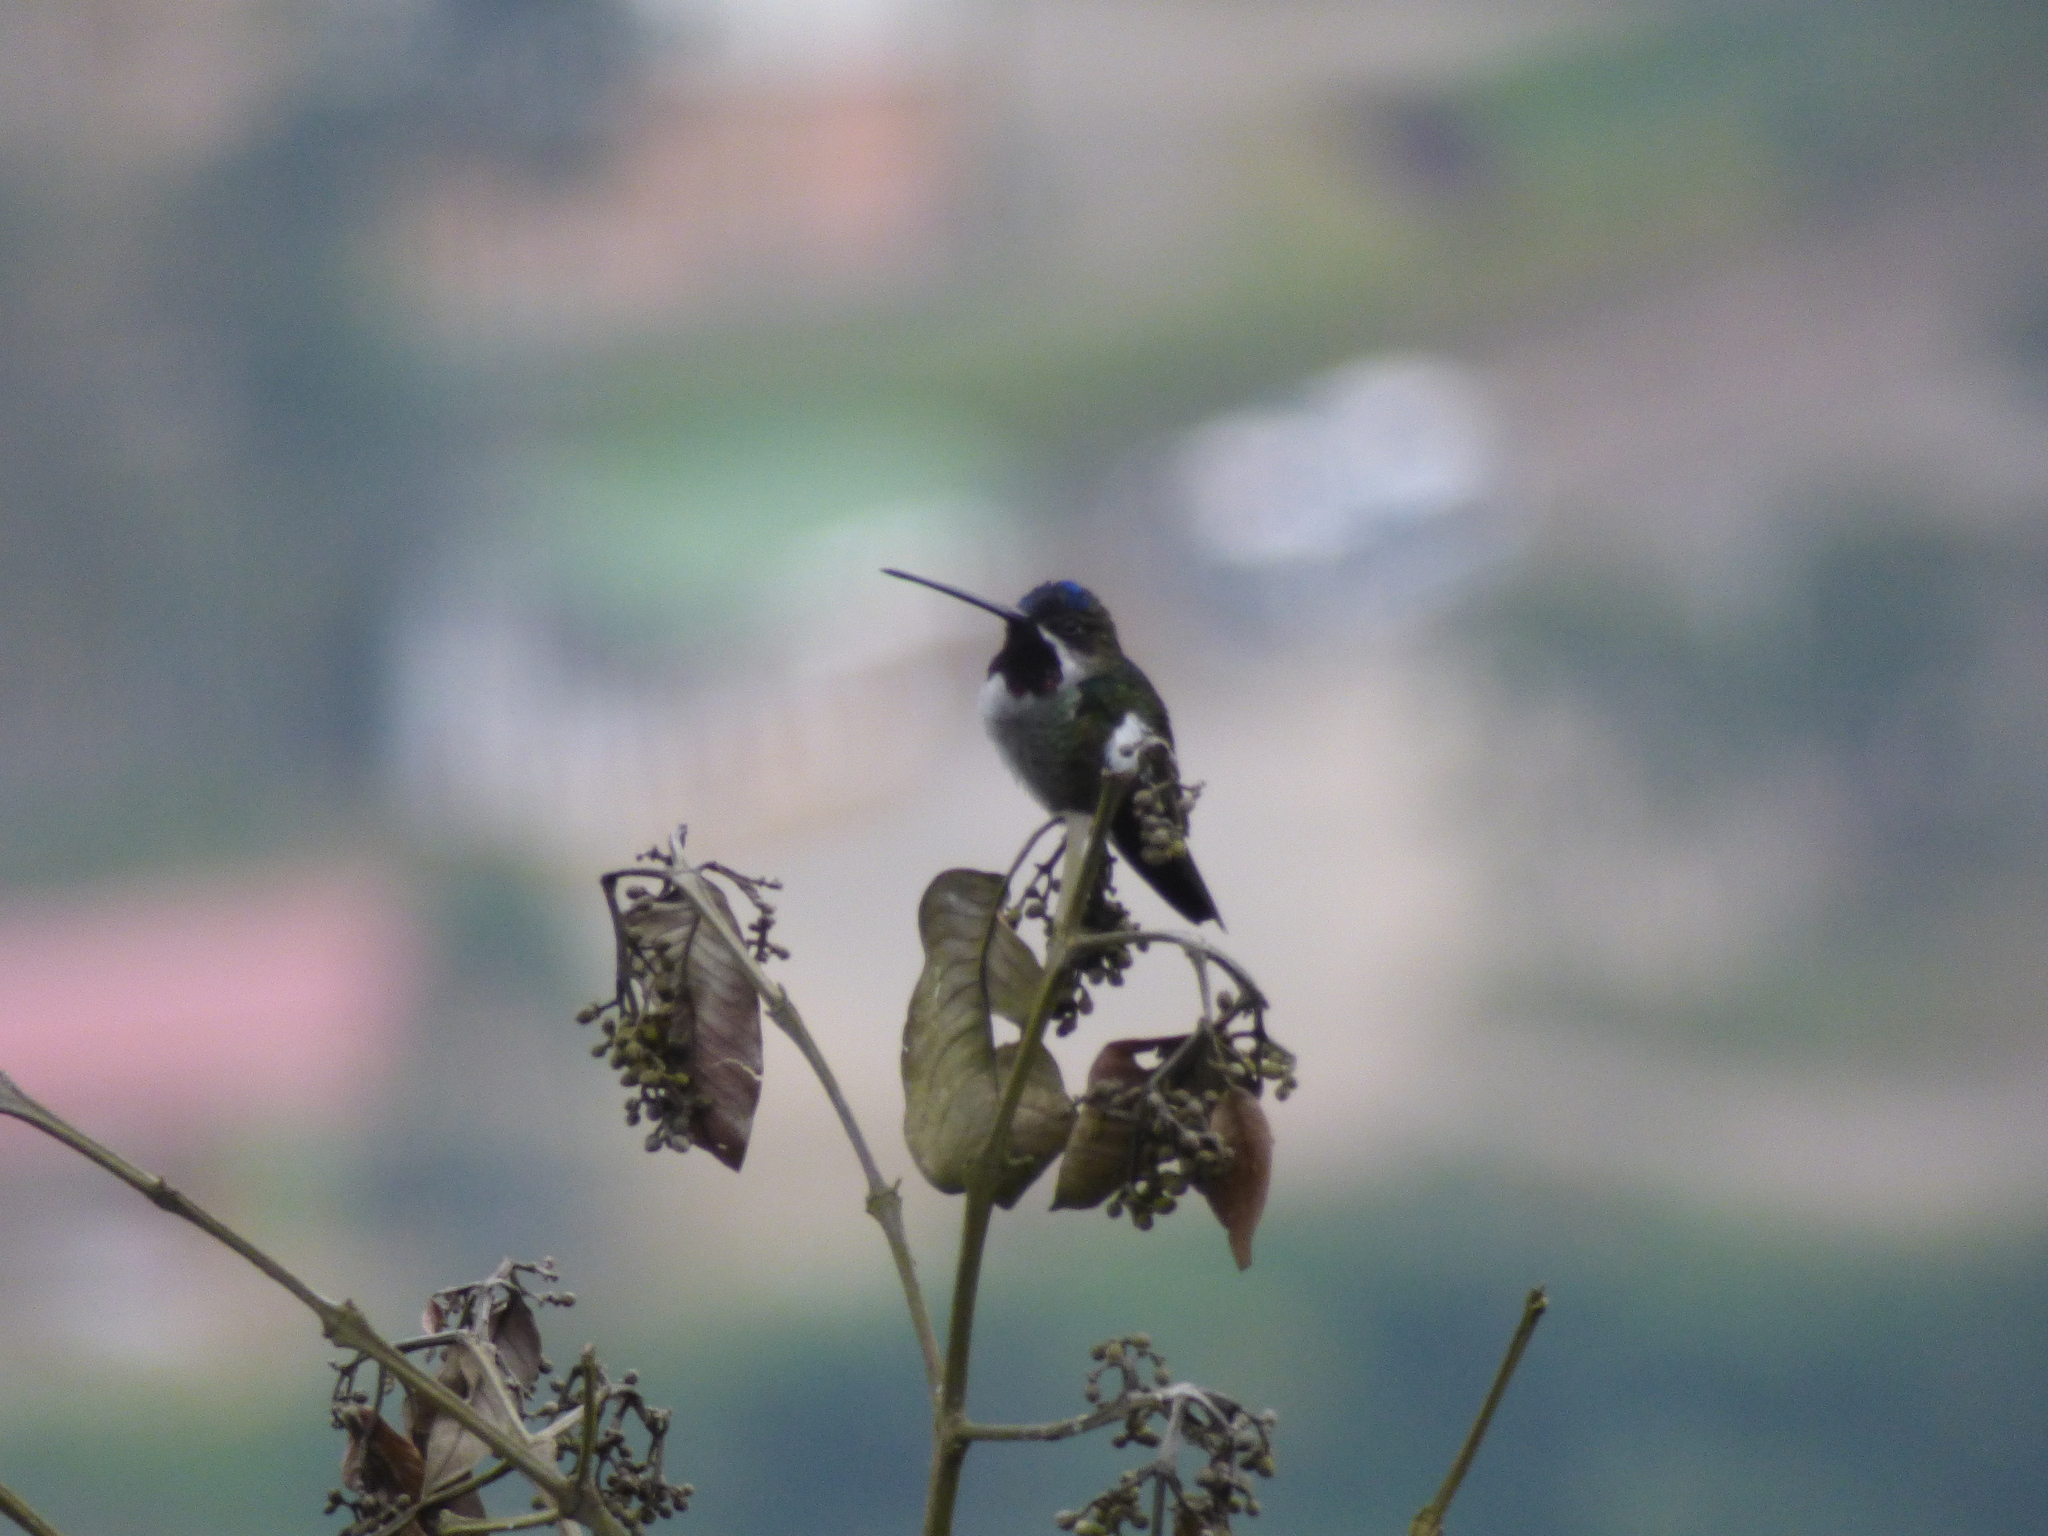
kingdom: Animalia
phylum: Chordata
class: Aves
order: Apodiformes
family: Trochilidae
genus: Heliomaster
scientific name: Heliomaster longirostris
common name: Long-billed starthroat
